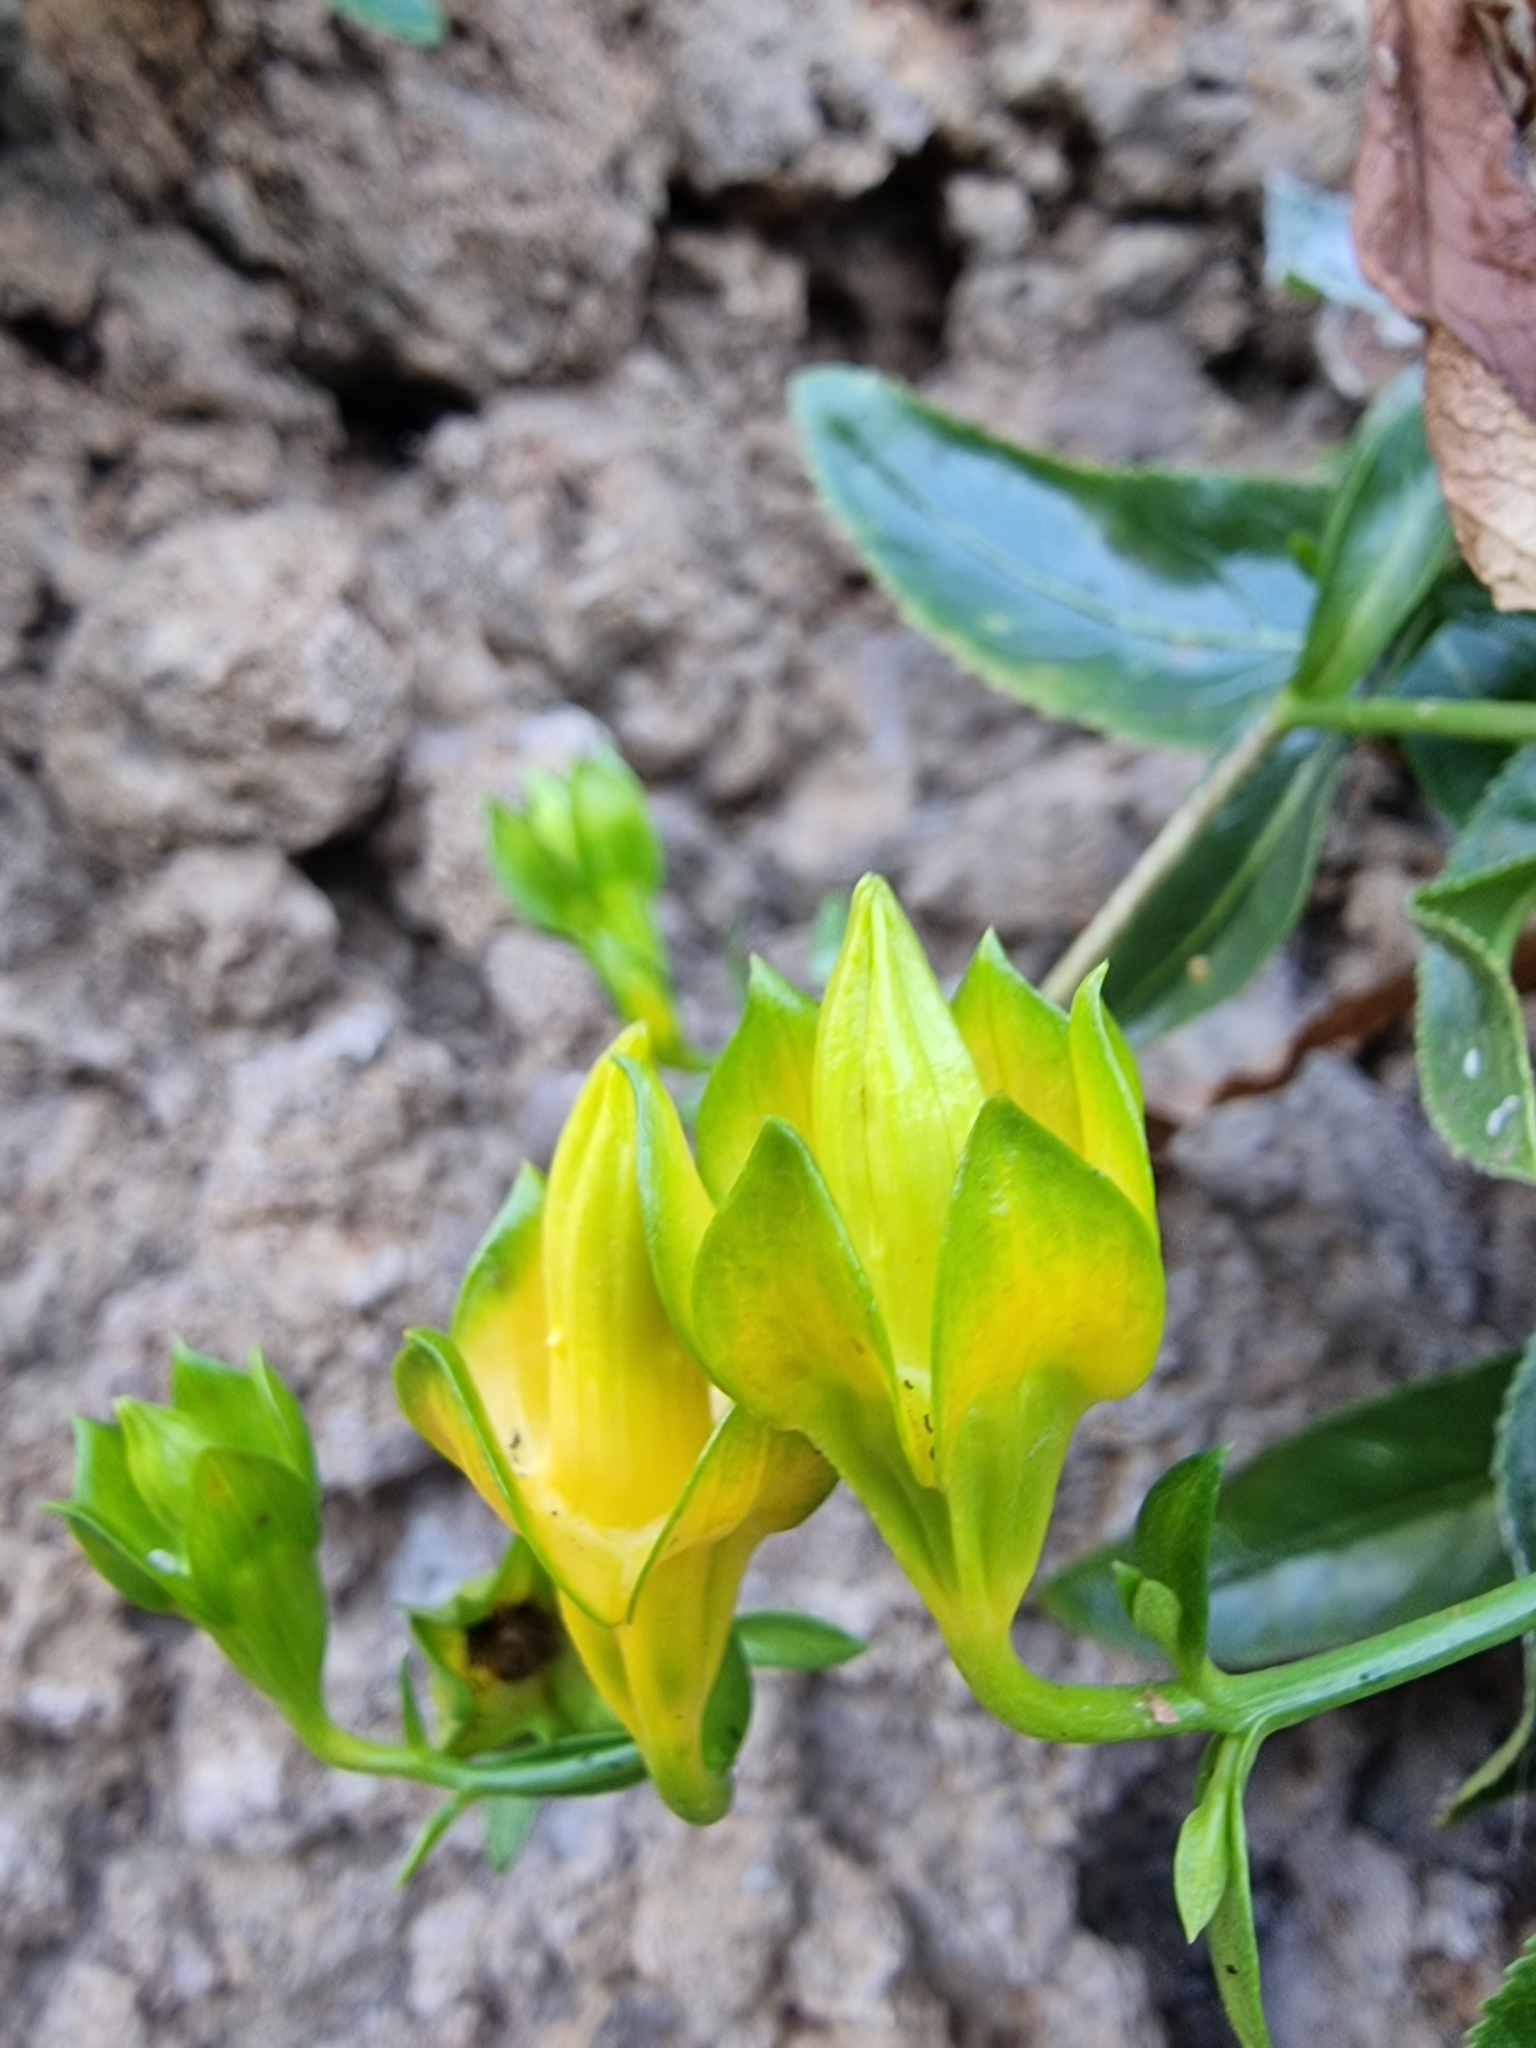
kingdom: Plantae
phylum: Tracheophyta
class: Magnoliopsida
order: Asterales
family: Campanulaceae
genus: Musschia
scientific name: Musschia aurea
